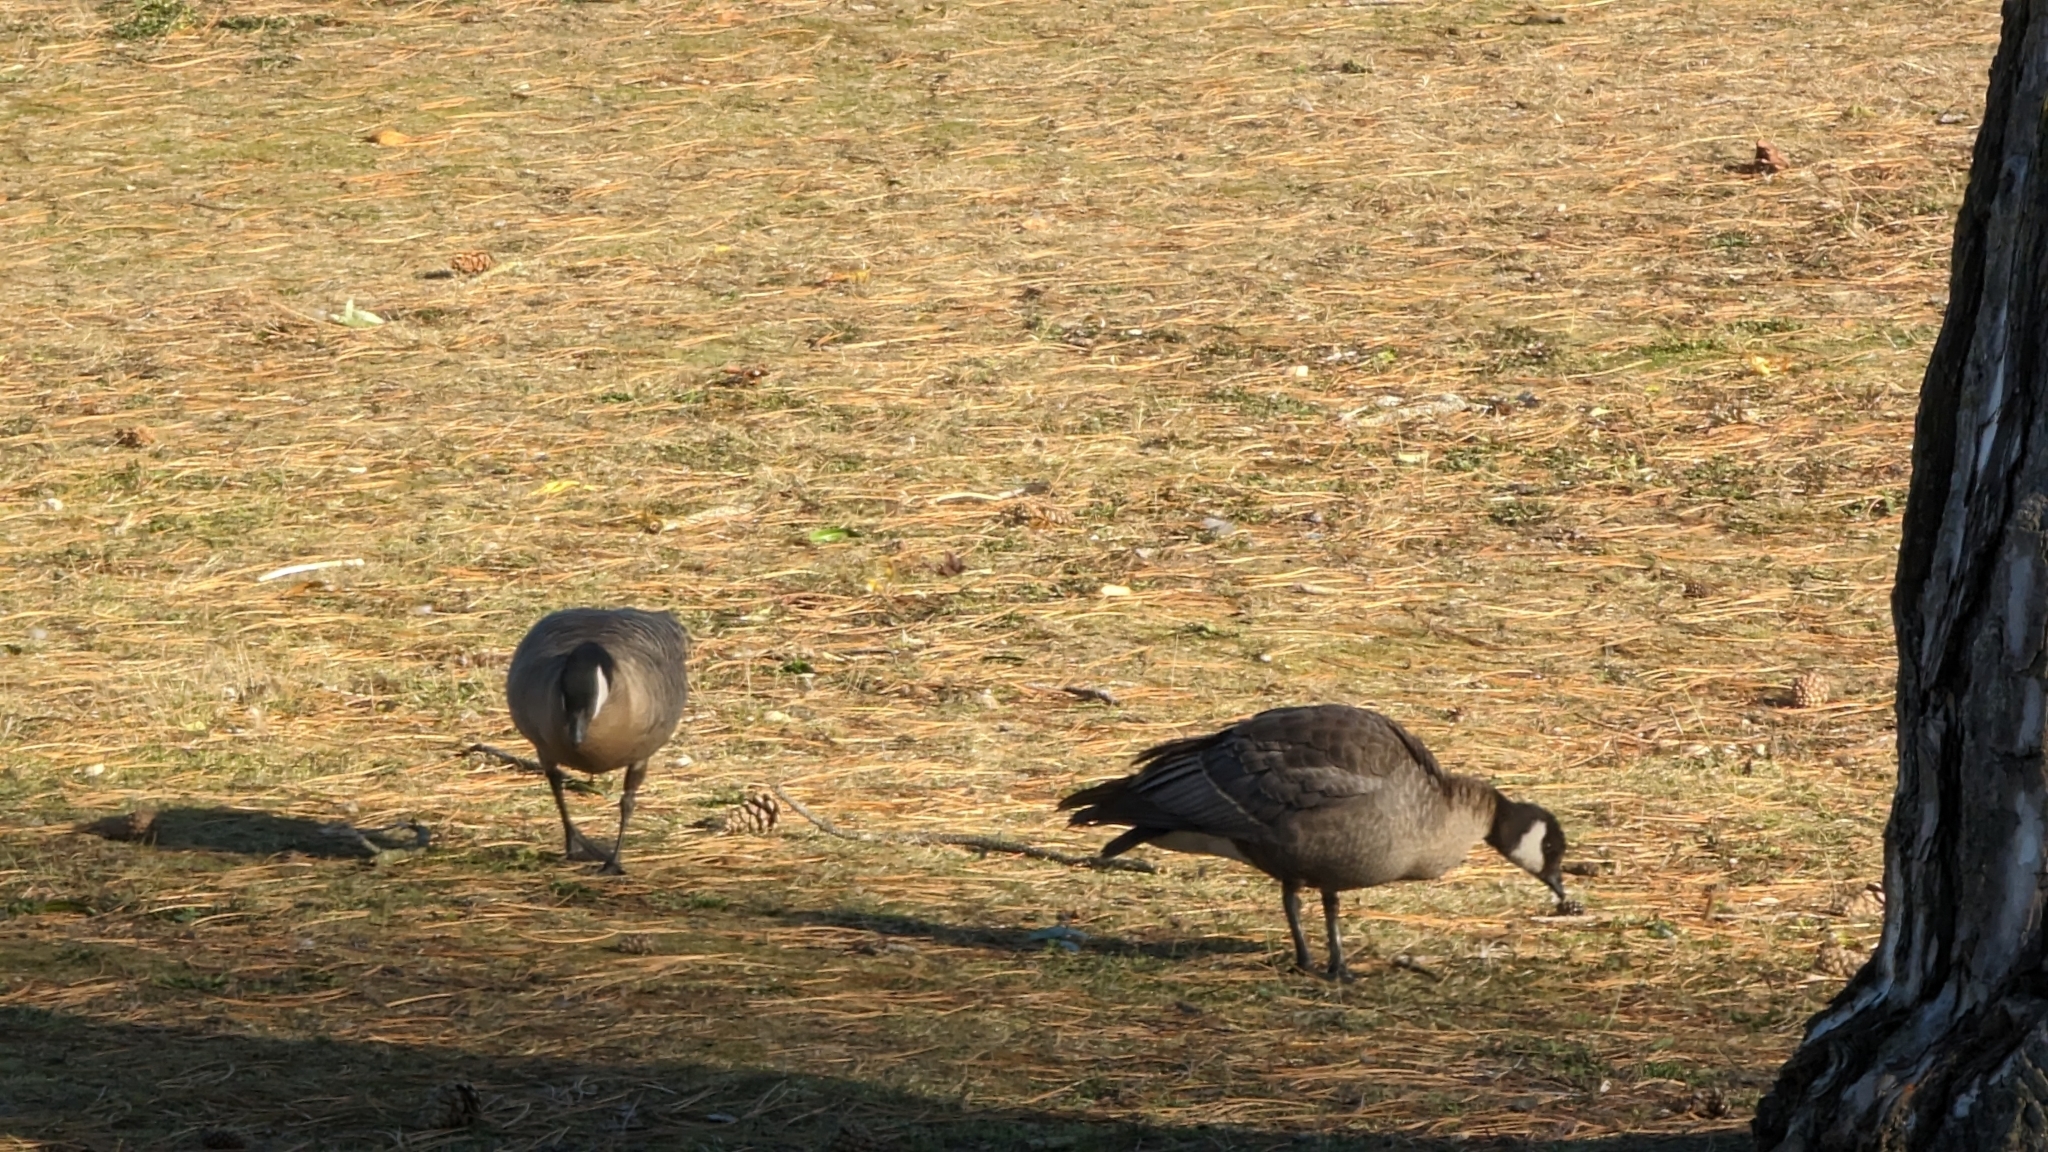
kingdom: Animalia
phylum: Chordata
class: Aves
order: Anseriformes
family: Anatidae
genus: Branta
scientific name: Branta hutchinsii
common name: Cackling goose
